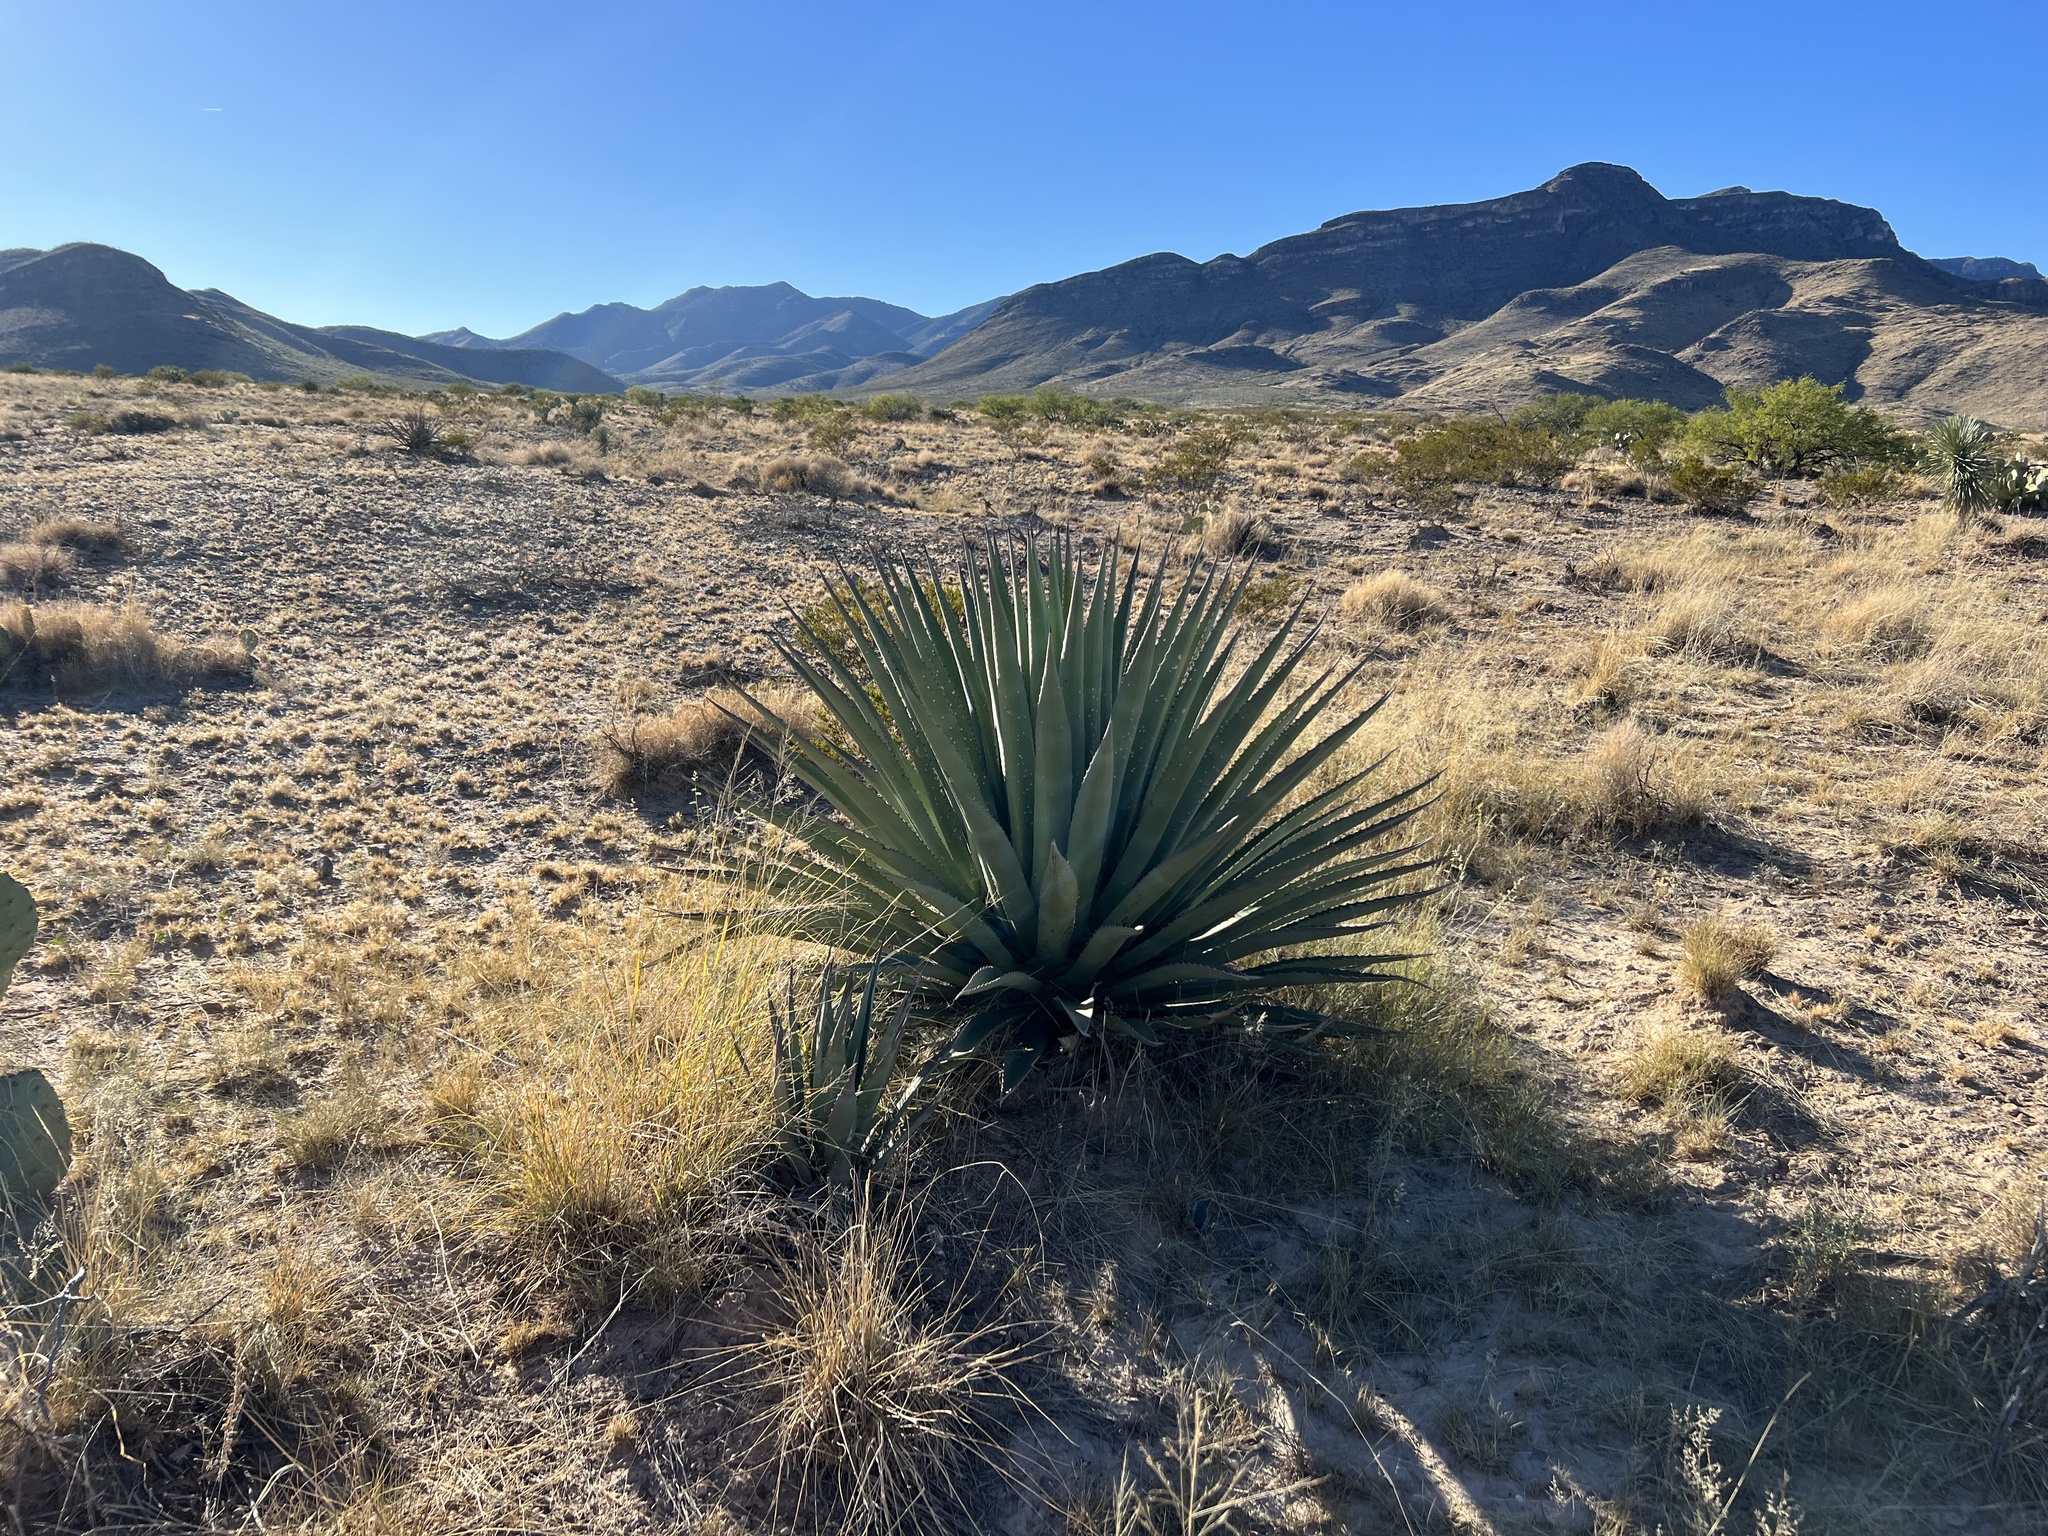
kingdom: Plantae
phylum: Tracheophyta
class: Liliopsida
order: Asparagales
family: Asparagaceae
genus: Agave
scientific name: Agave palmeri
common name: Palmer agave
